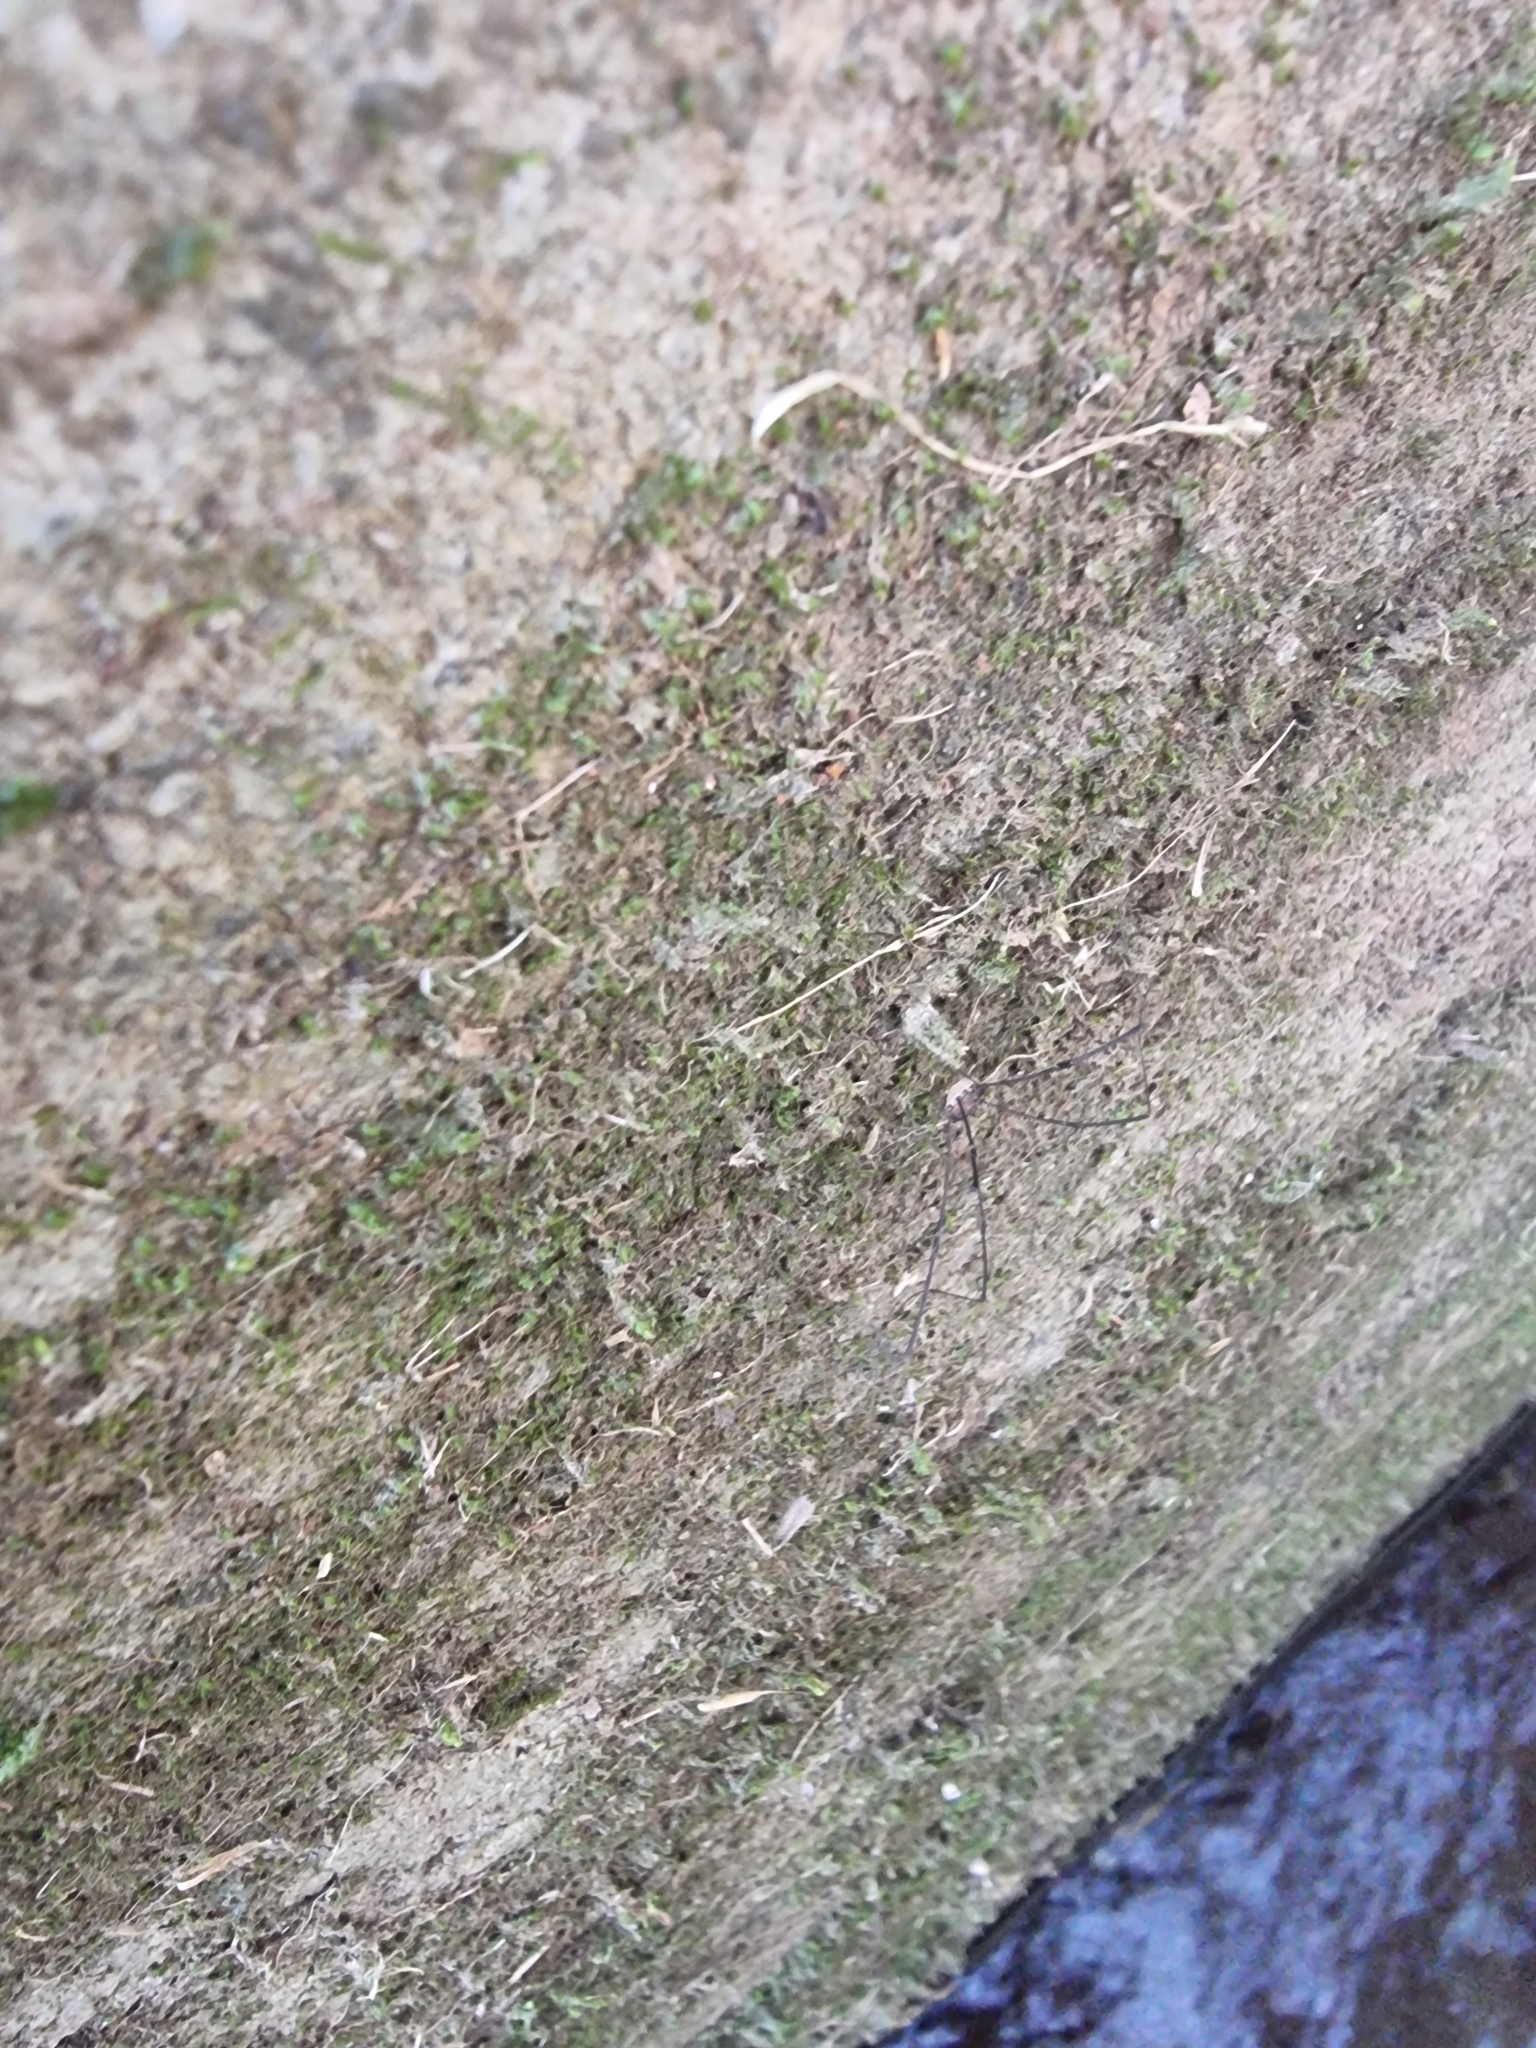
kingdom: Animalia
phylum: Arthropoda
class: Arachnida
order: Opiliones
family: Sclerosomatidae
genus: Leiobunum
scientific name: Leiobunum blackwalli
